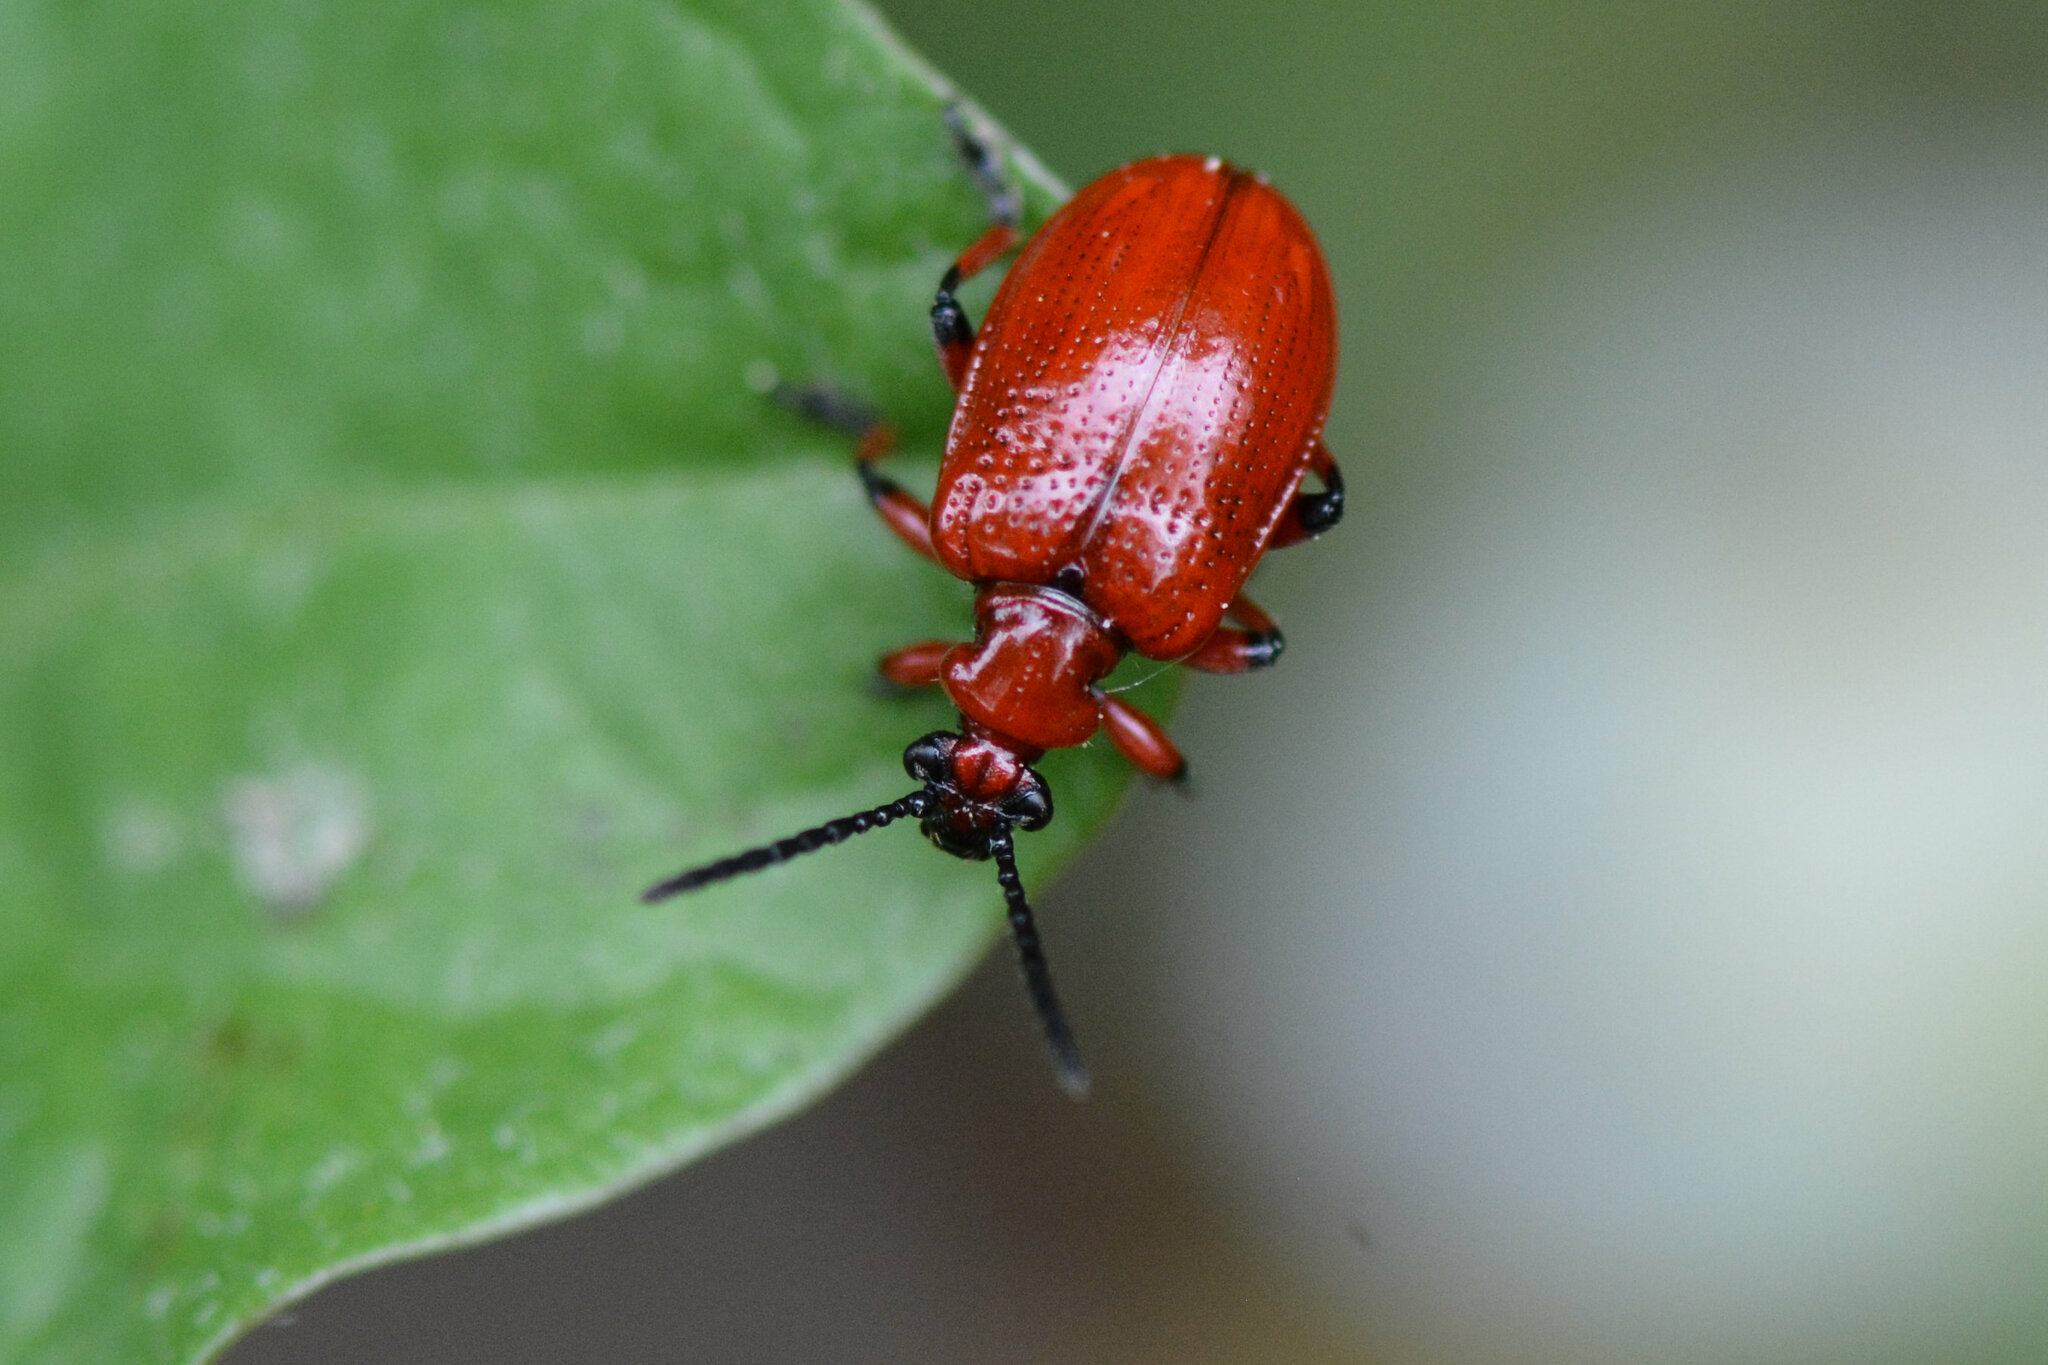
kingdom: Animalia
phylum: Arthropoda
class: Insecta
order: Coleoptera
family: Chrysomelidae
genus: Lilioceris
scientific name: Lilioceris merdigera
